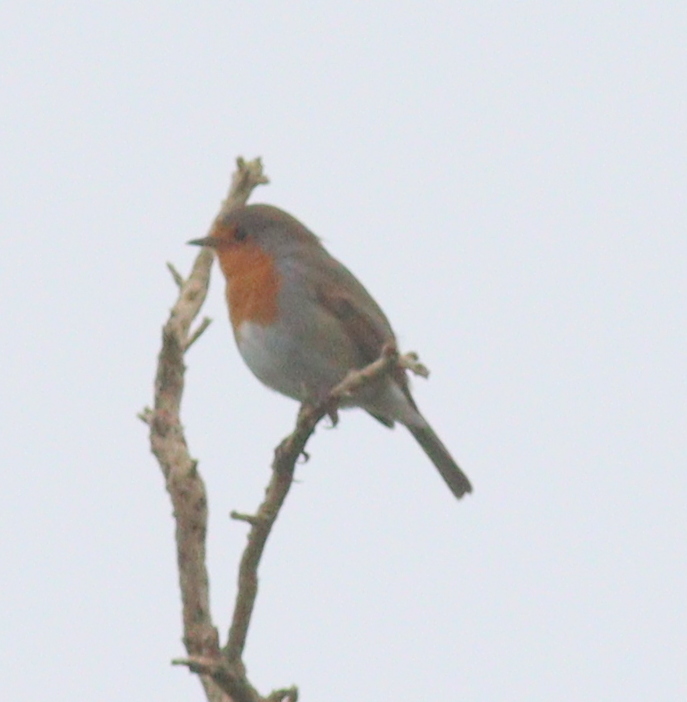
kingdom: Animalia
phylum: Chordata
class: Aves
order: Passeriformes
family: Muscicapidae
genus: Erithacus
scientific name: Erithacus rubecula
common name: European robin
